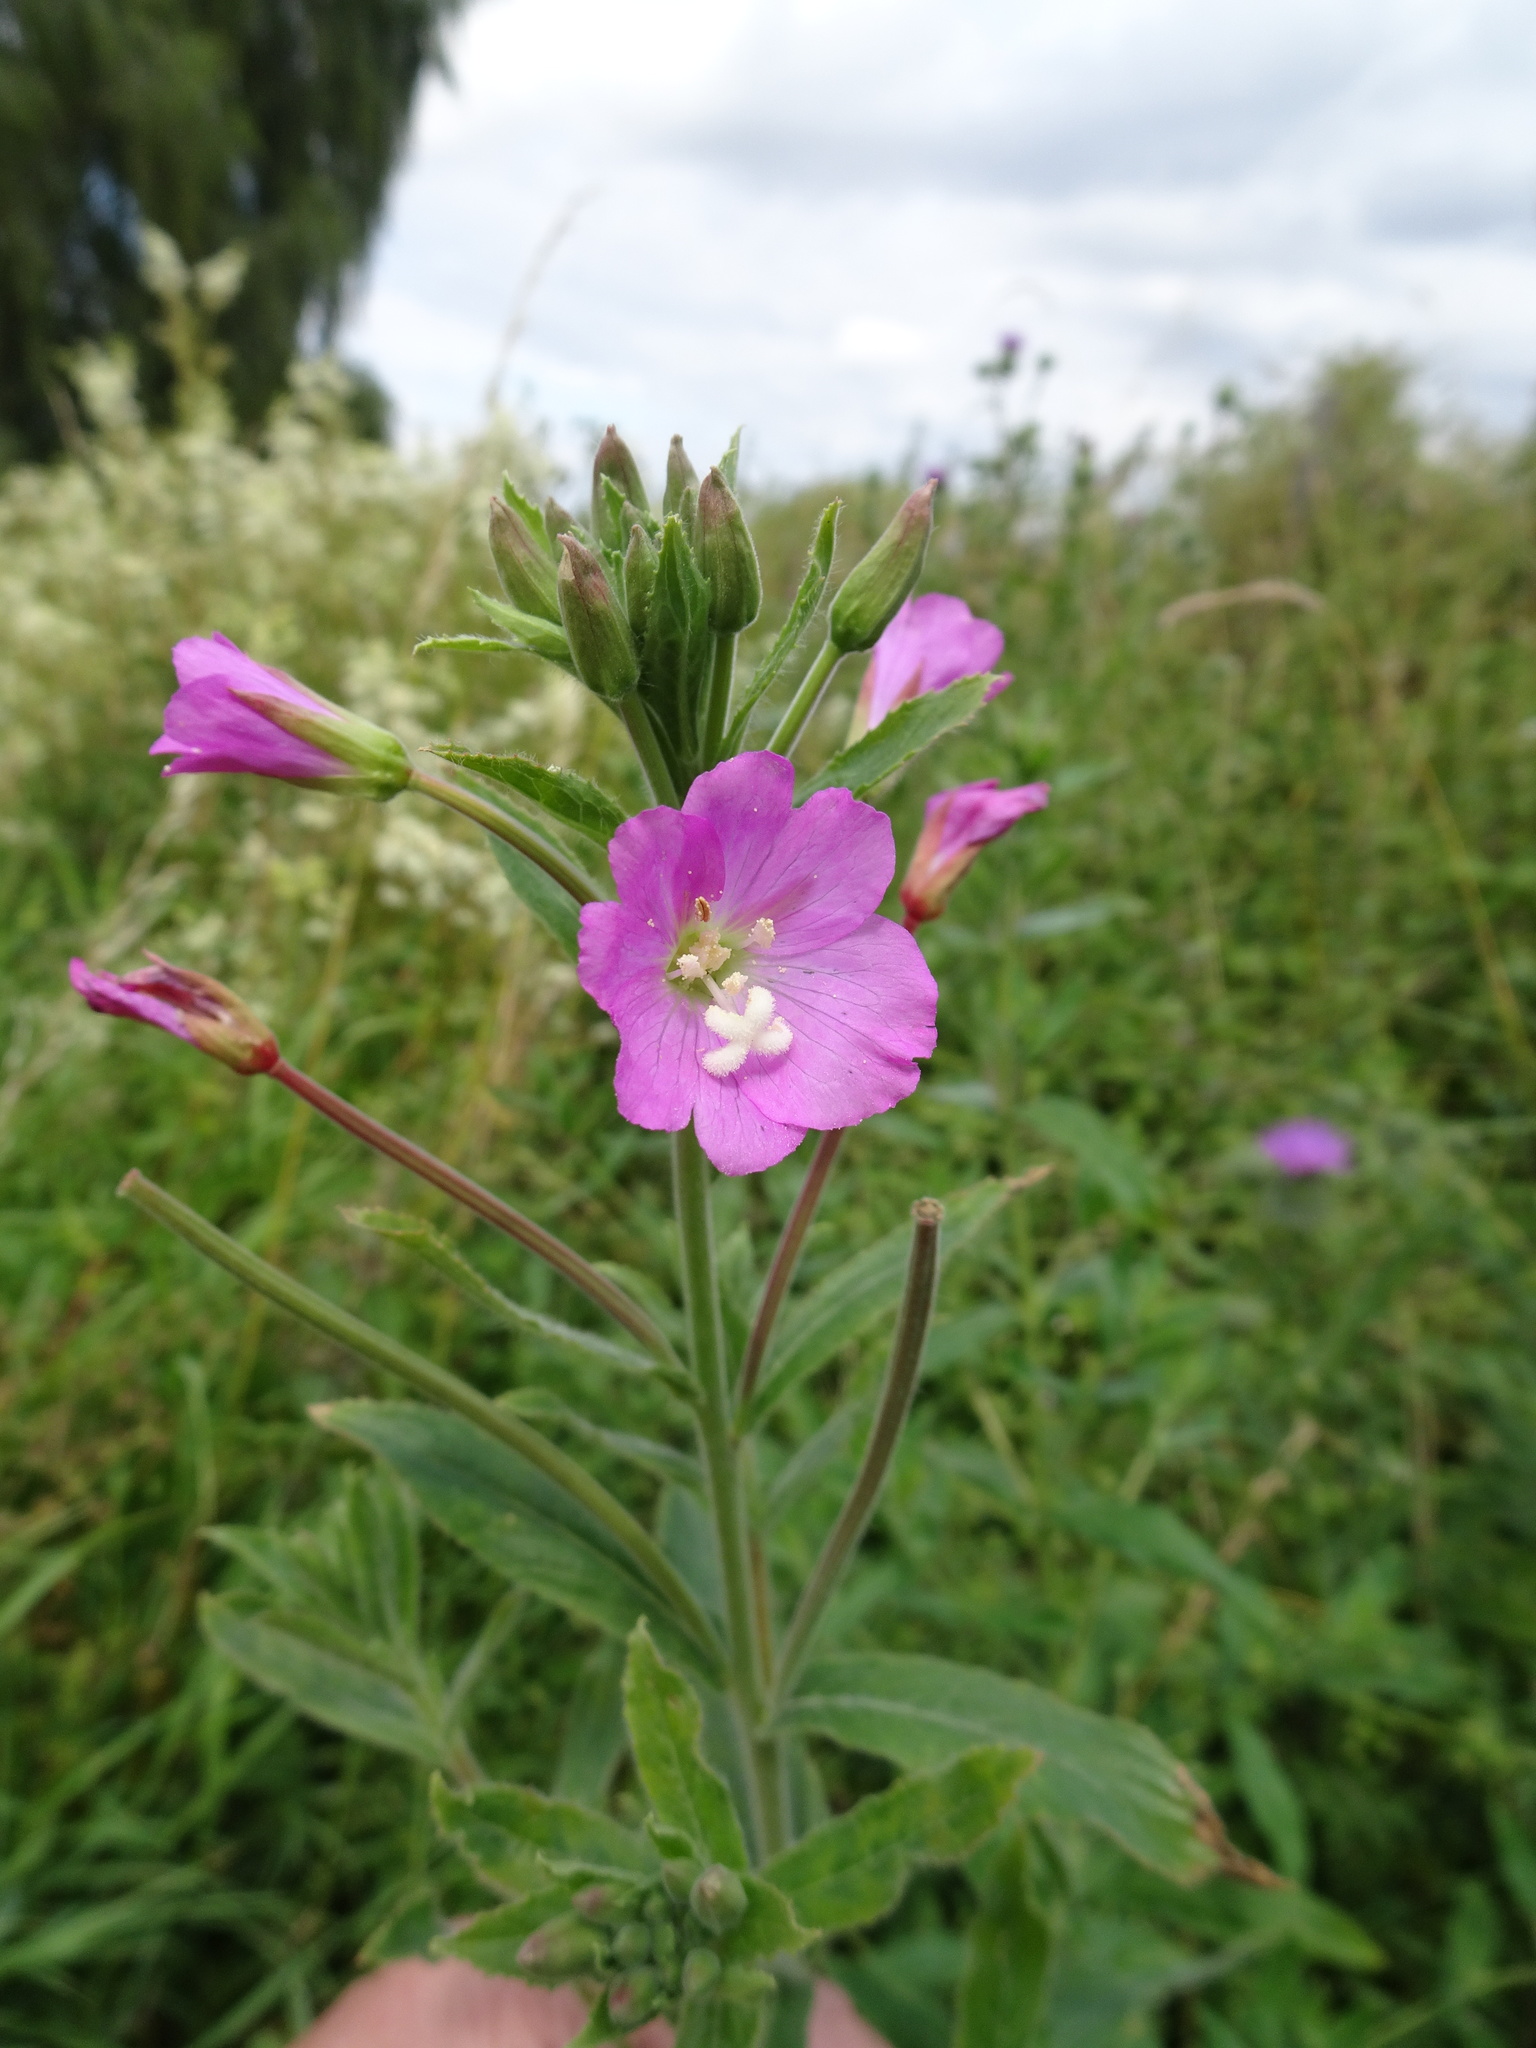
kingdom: Plantae
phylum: Tracheophyta
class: Magnoliopsida
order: Myrtales
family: Onagraceae
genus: Epilobium
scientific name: Epilobium hirsutum
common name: Great willowherb
